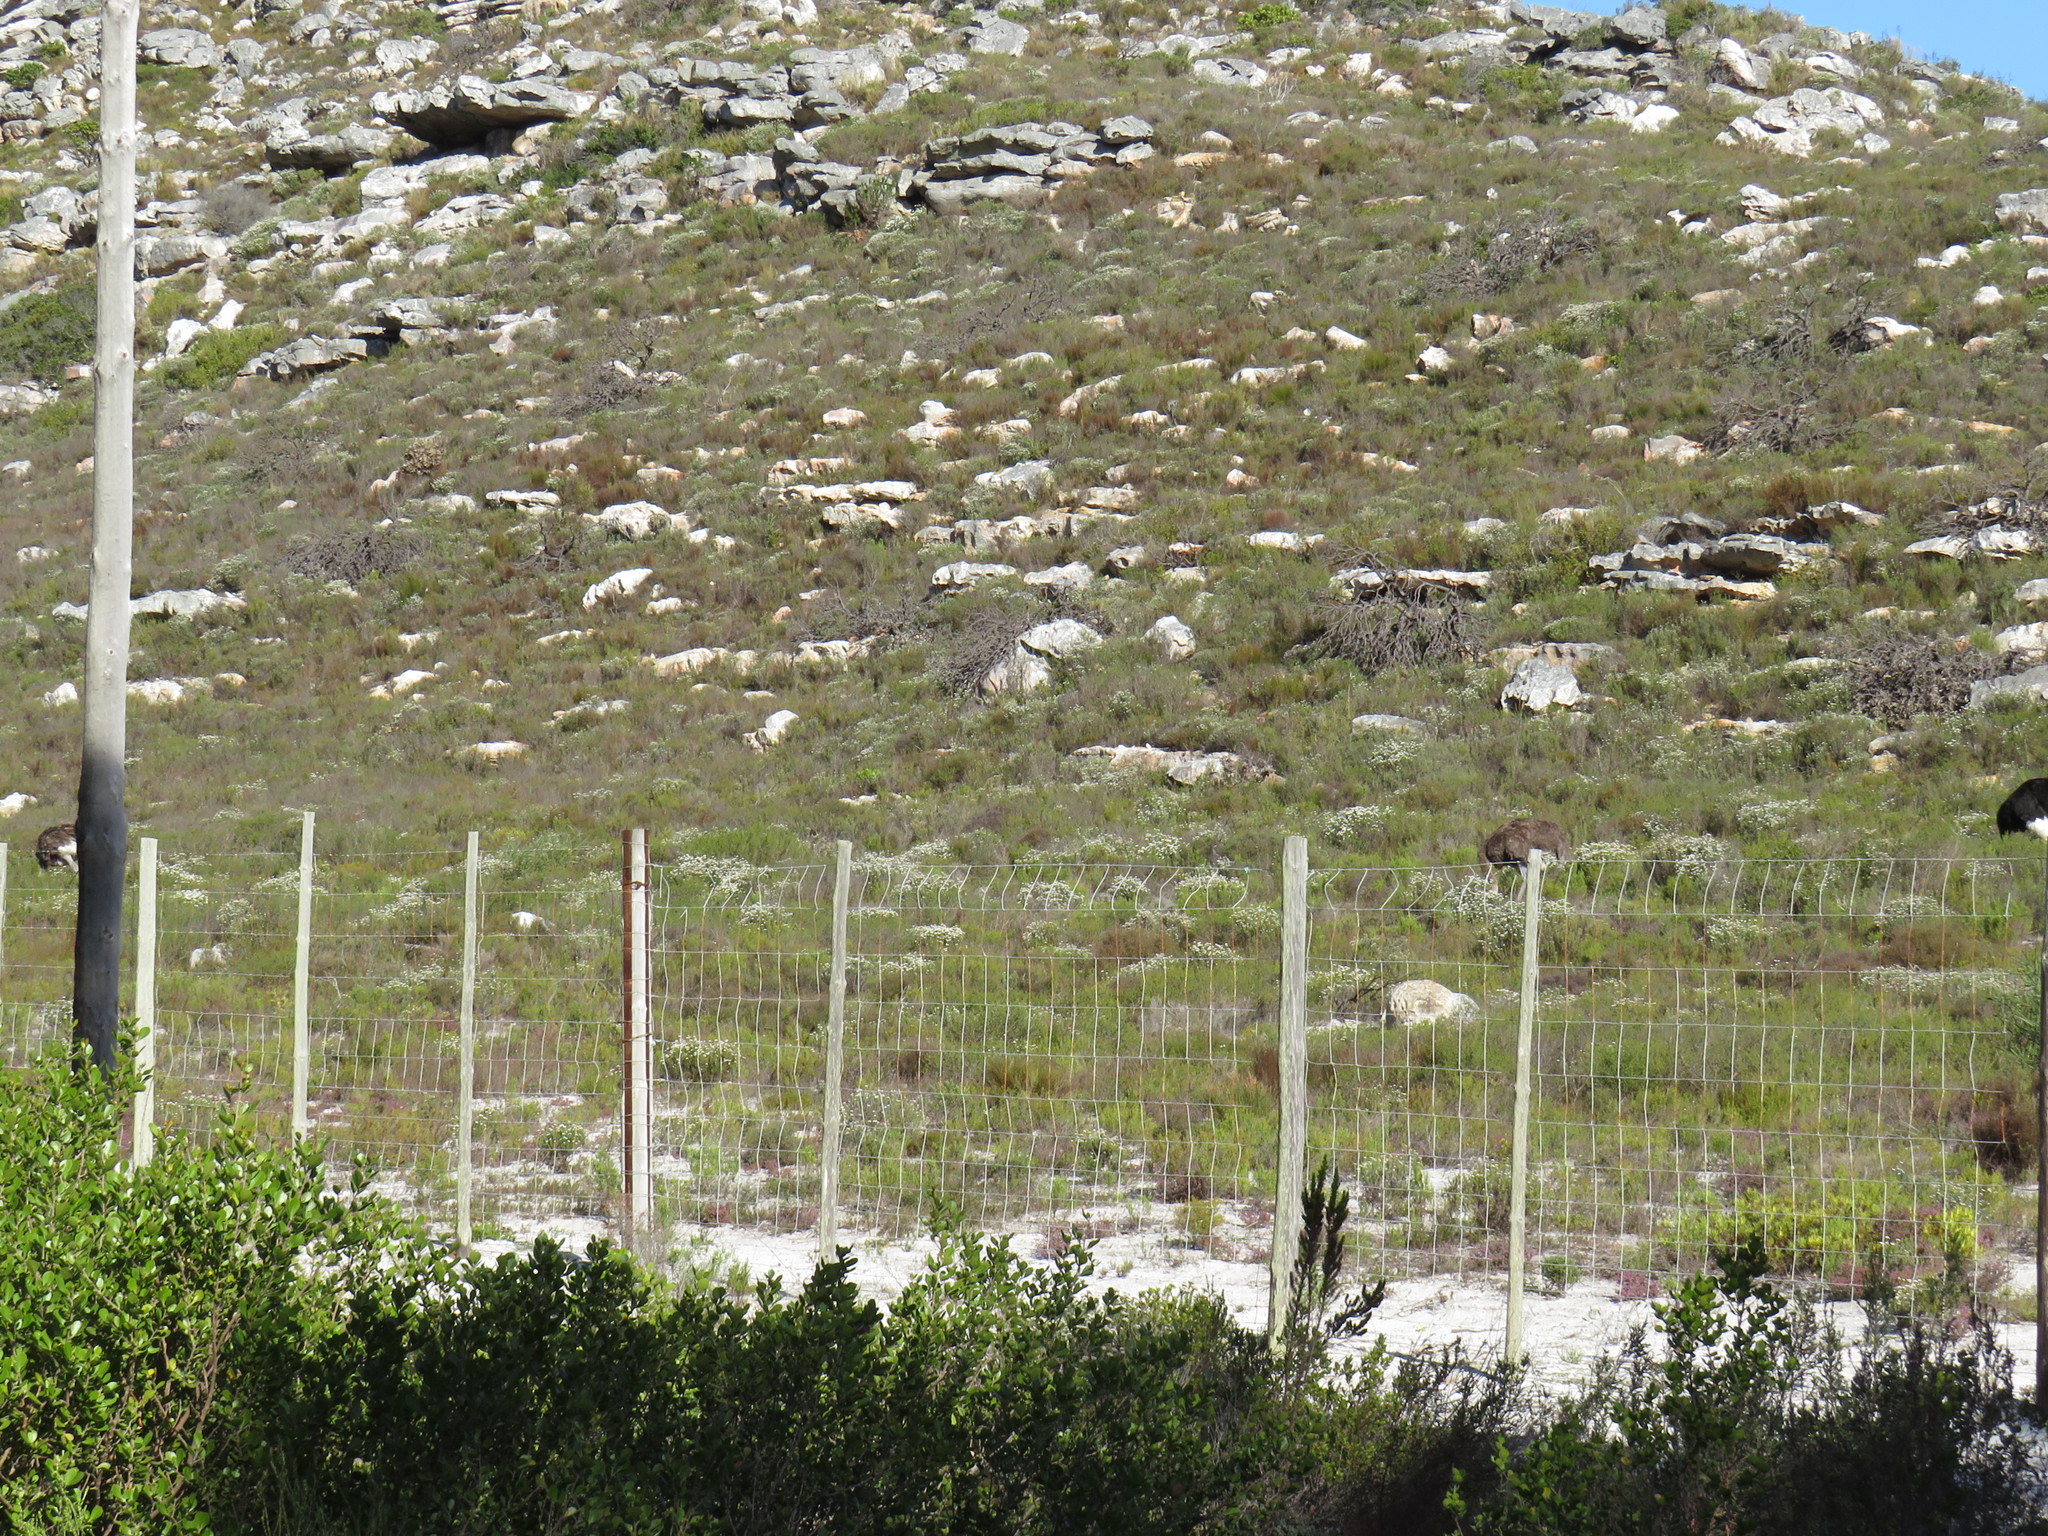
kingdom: Animalia
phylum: Chordata
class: Aves
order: Struthioniformes
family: Struthionidae
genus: Struthio
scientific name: Struthio camelus
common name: Common ostrich
